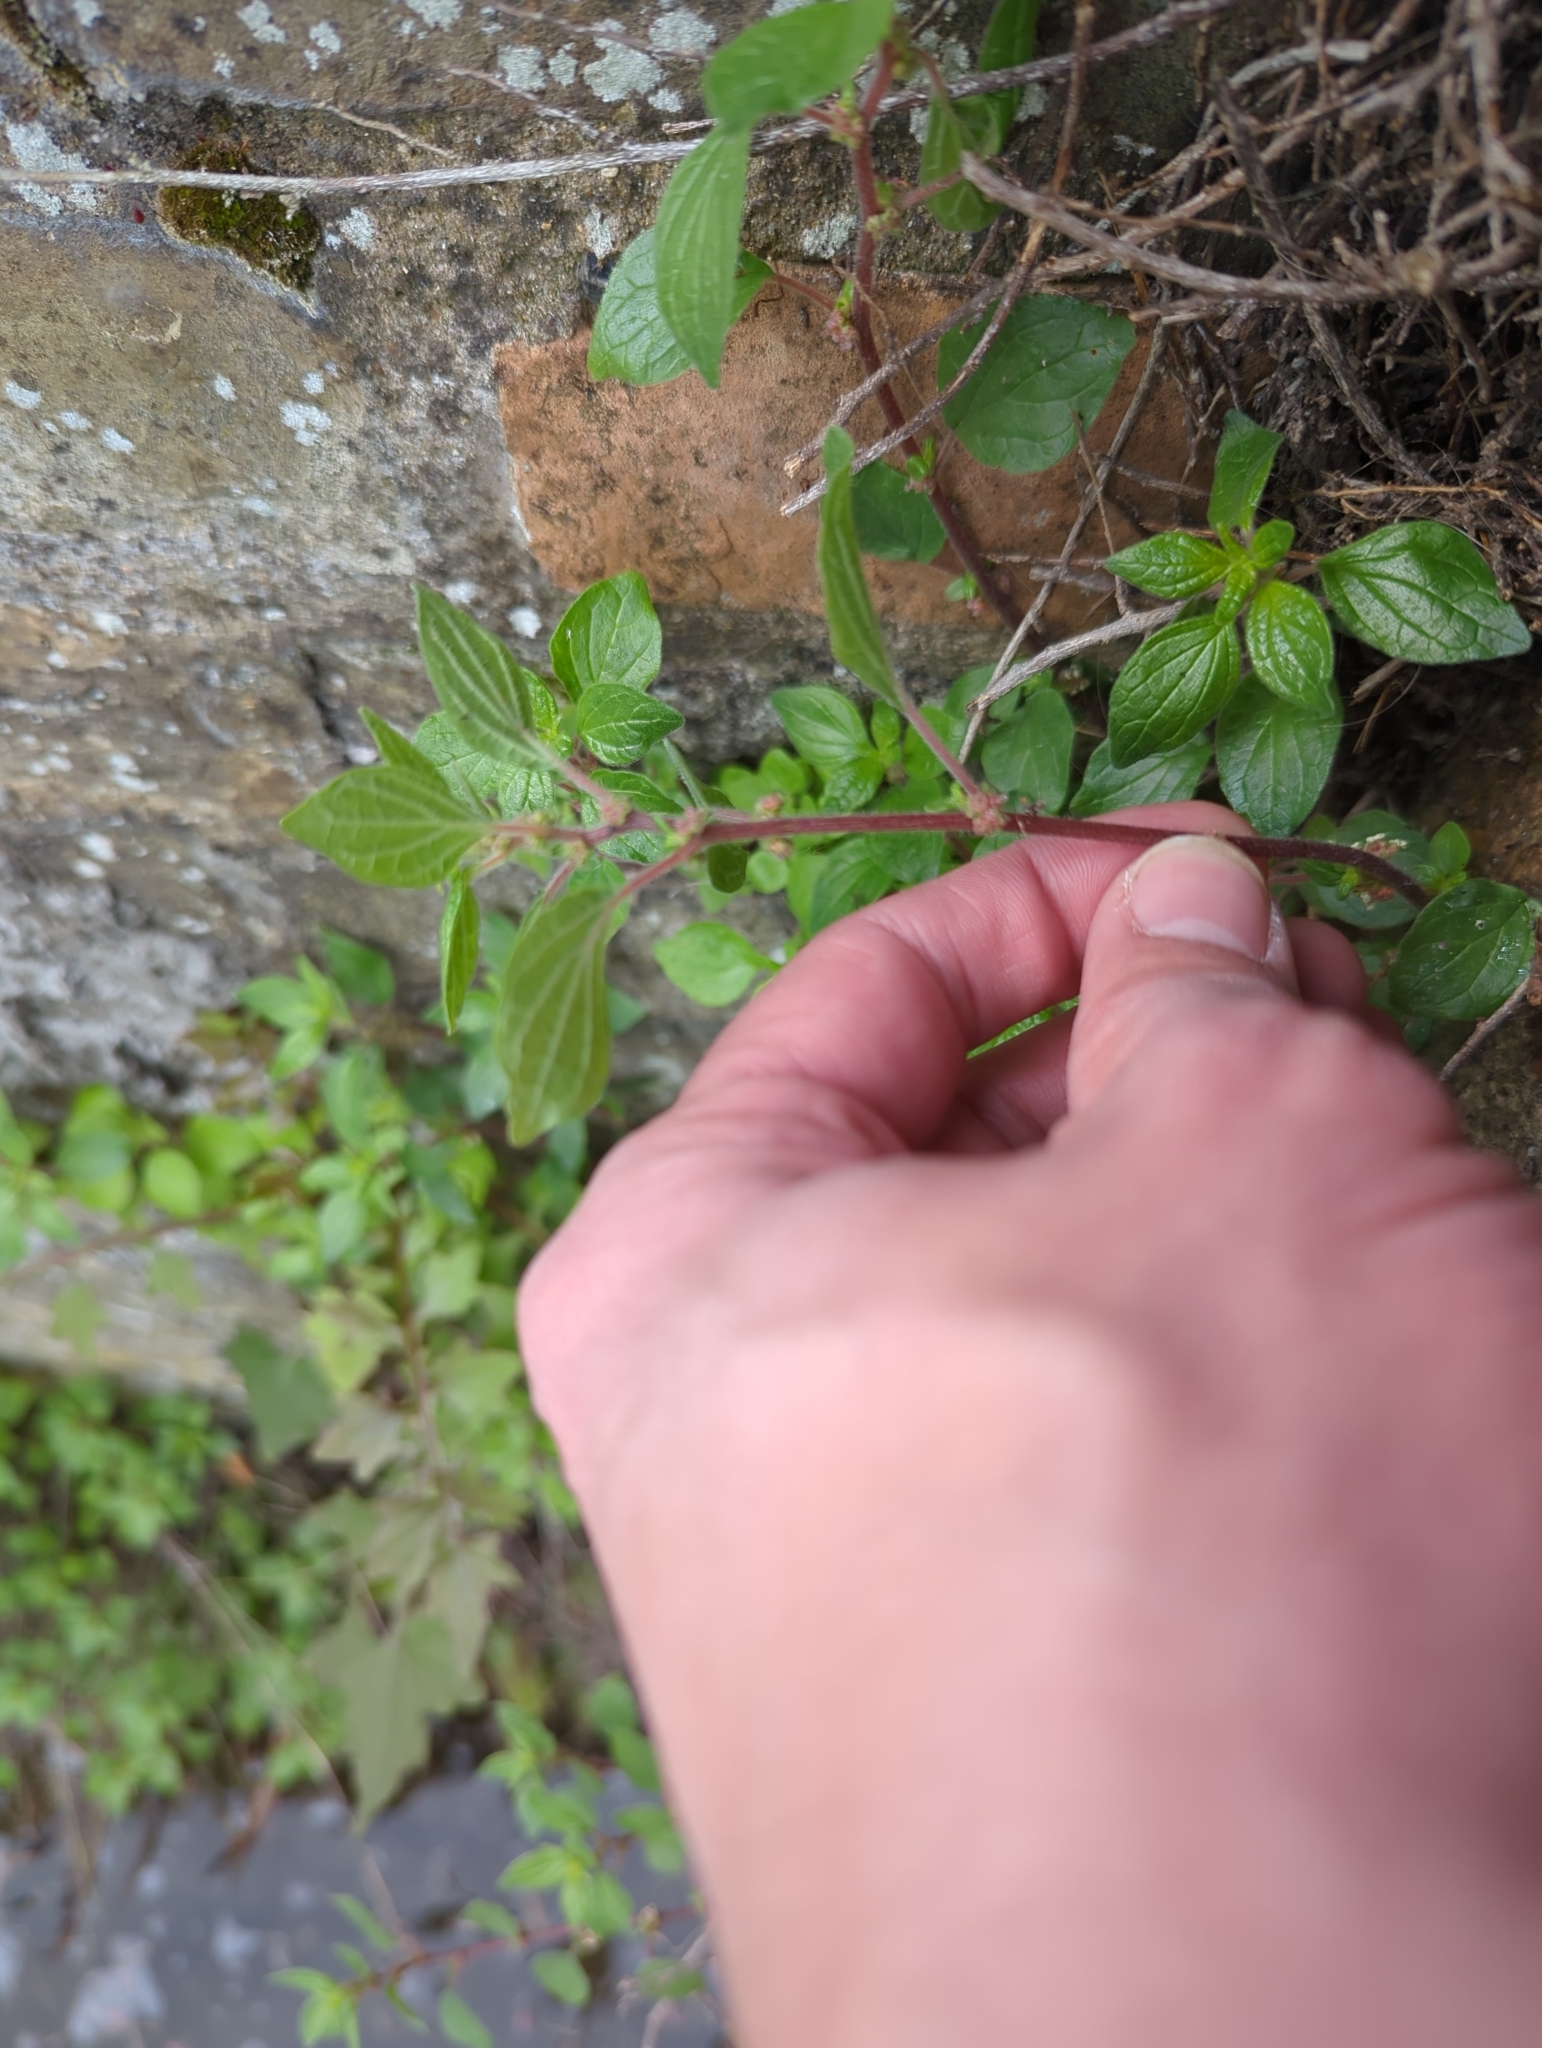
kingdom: Plantae
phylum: Tracheophyta
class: Magnoliopsida
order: Rosales
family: Urticaceae
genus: Parietaria
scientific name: Parietaria judaica
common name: Pellitory-of-the-wall
